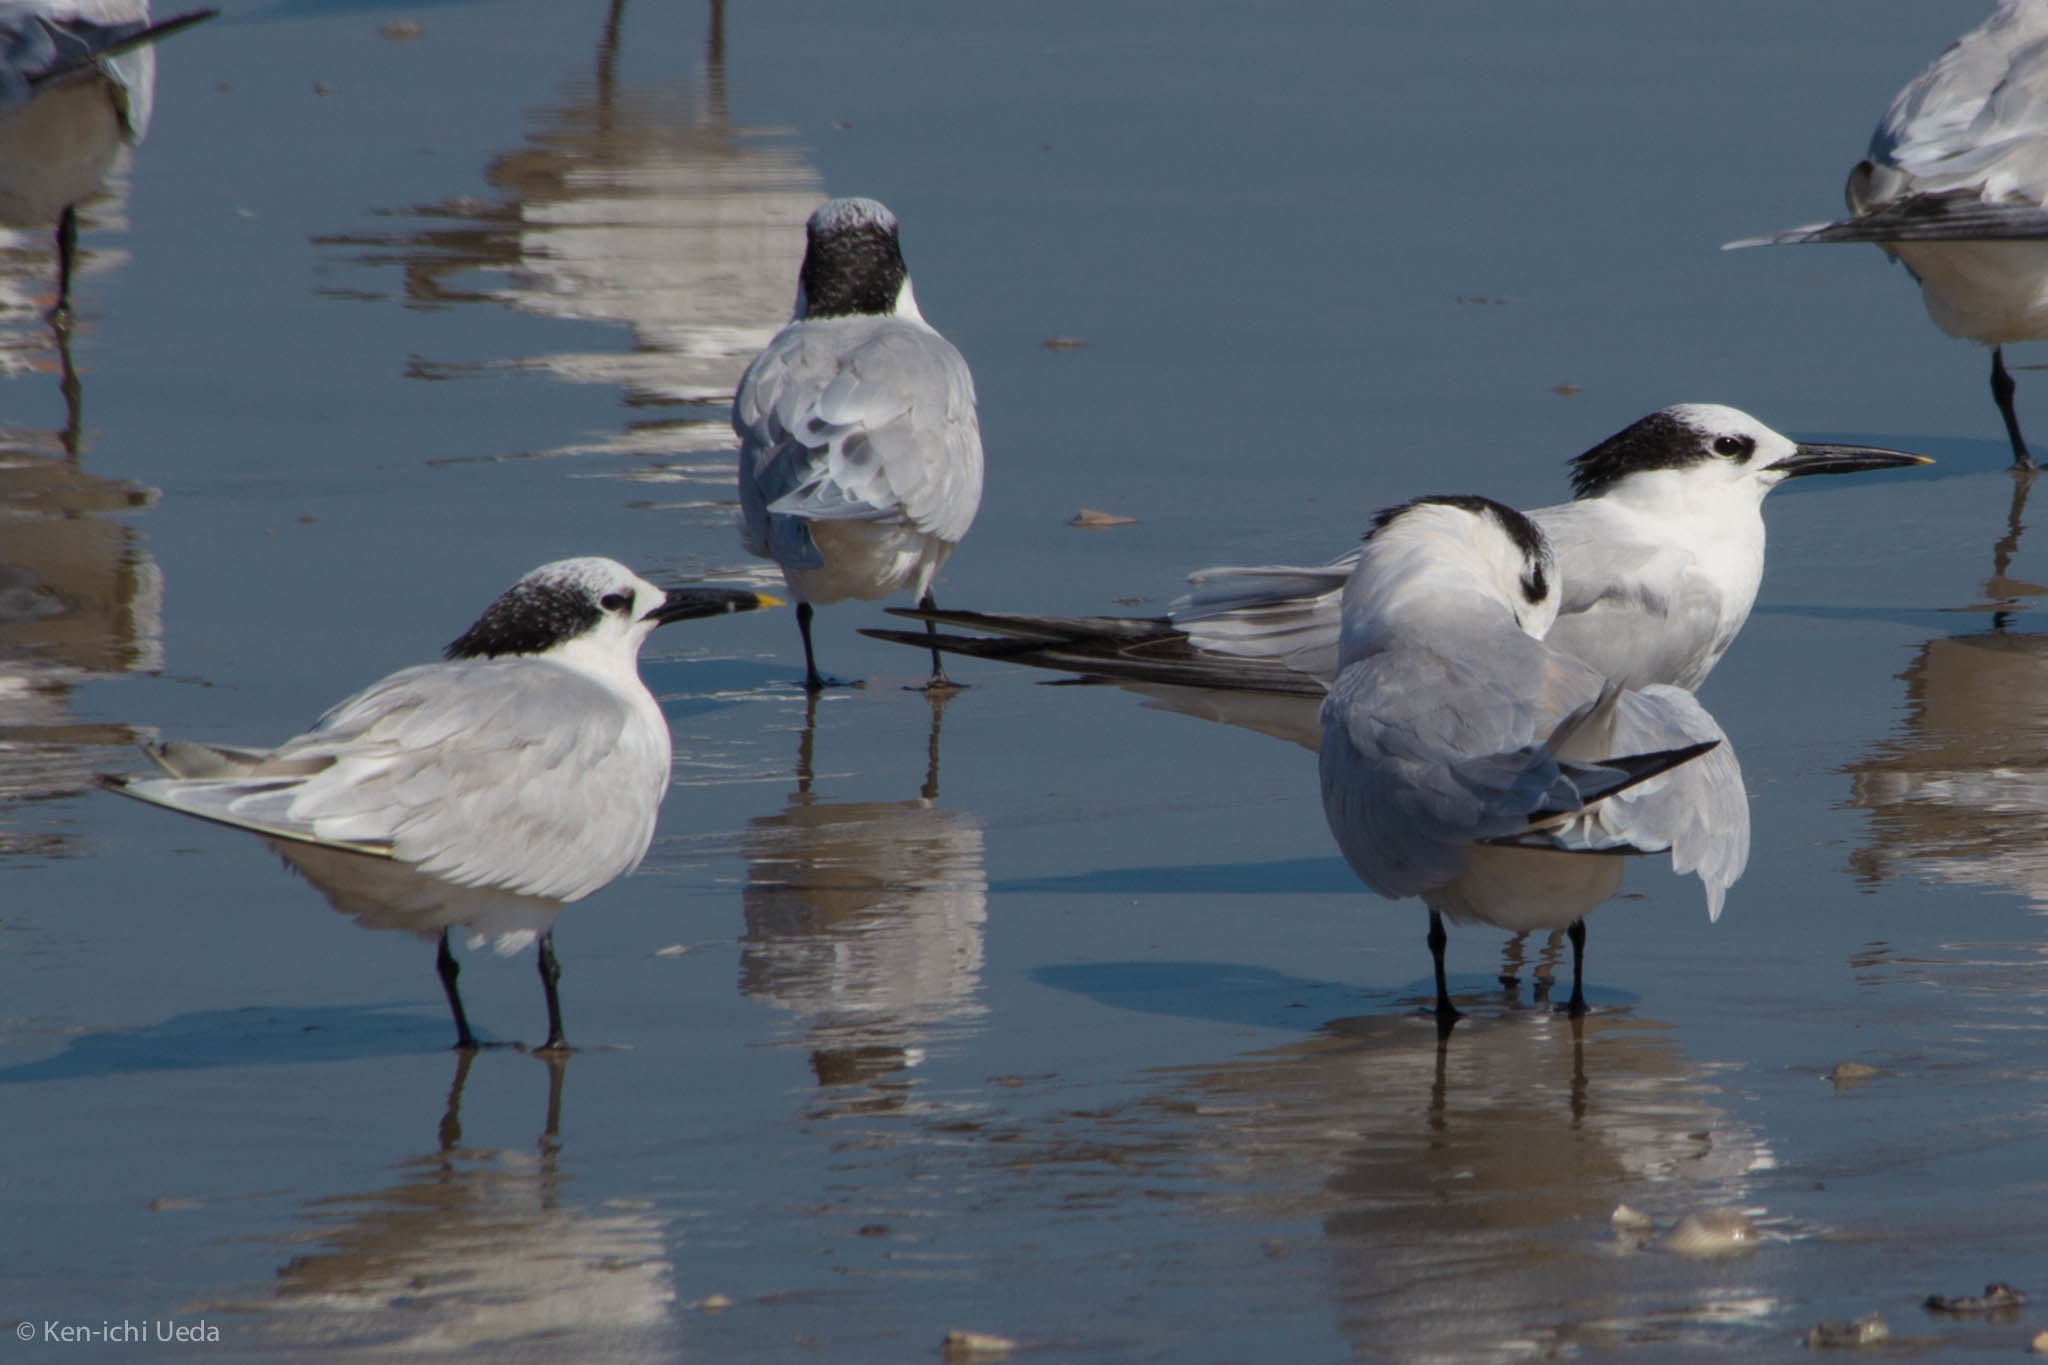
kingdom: Animalia
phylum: Chordata
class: Aves
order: Charadriiformes
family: Laridae
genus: Thalasseus
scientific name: Thalasseus sandvicensis
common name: Sandwich tern
